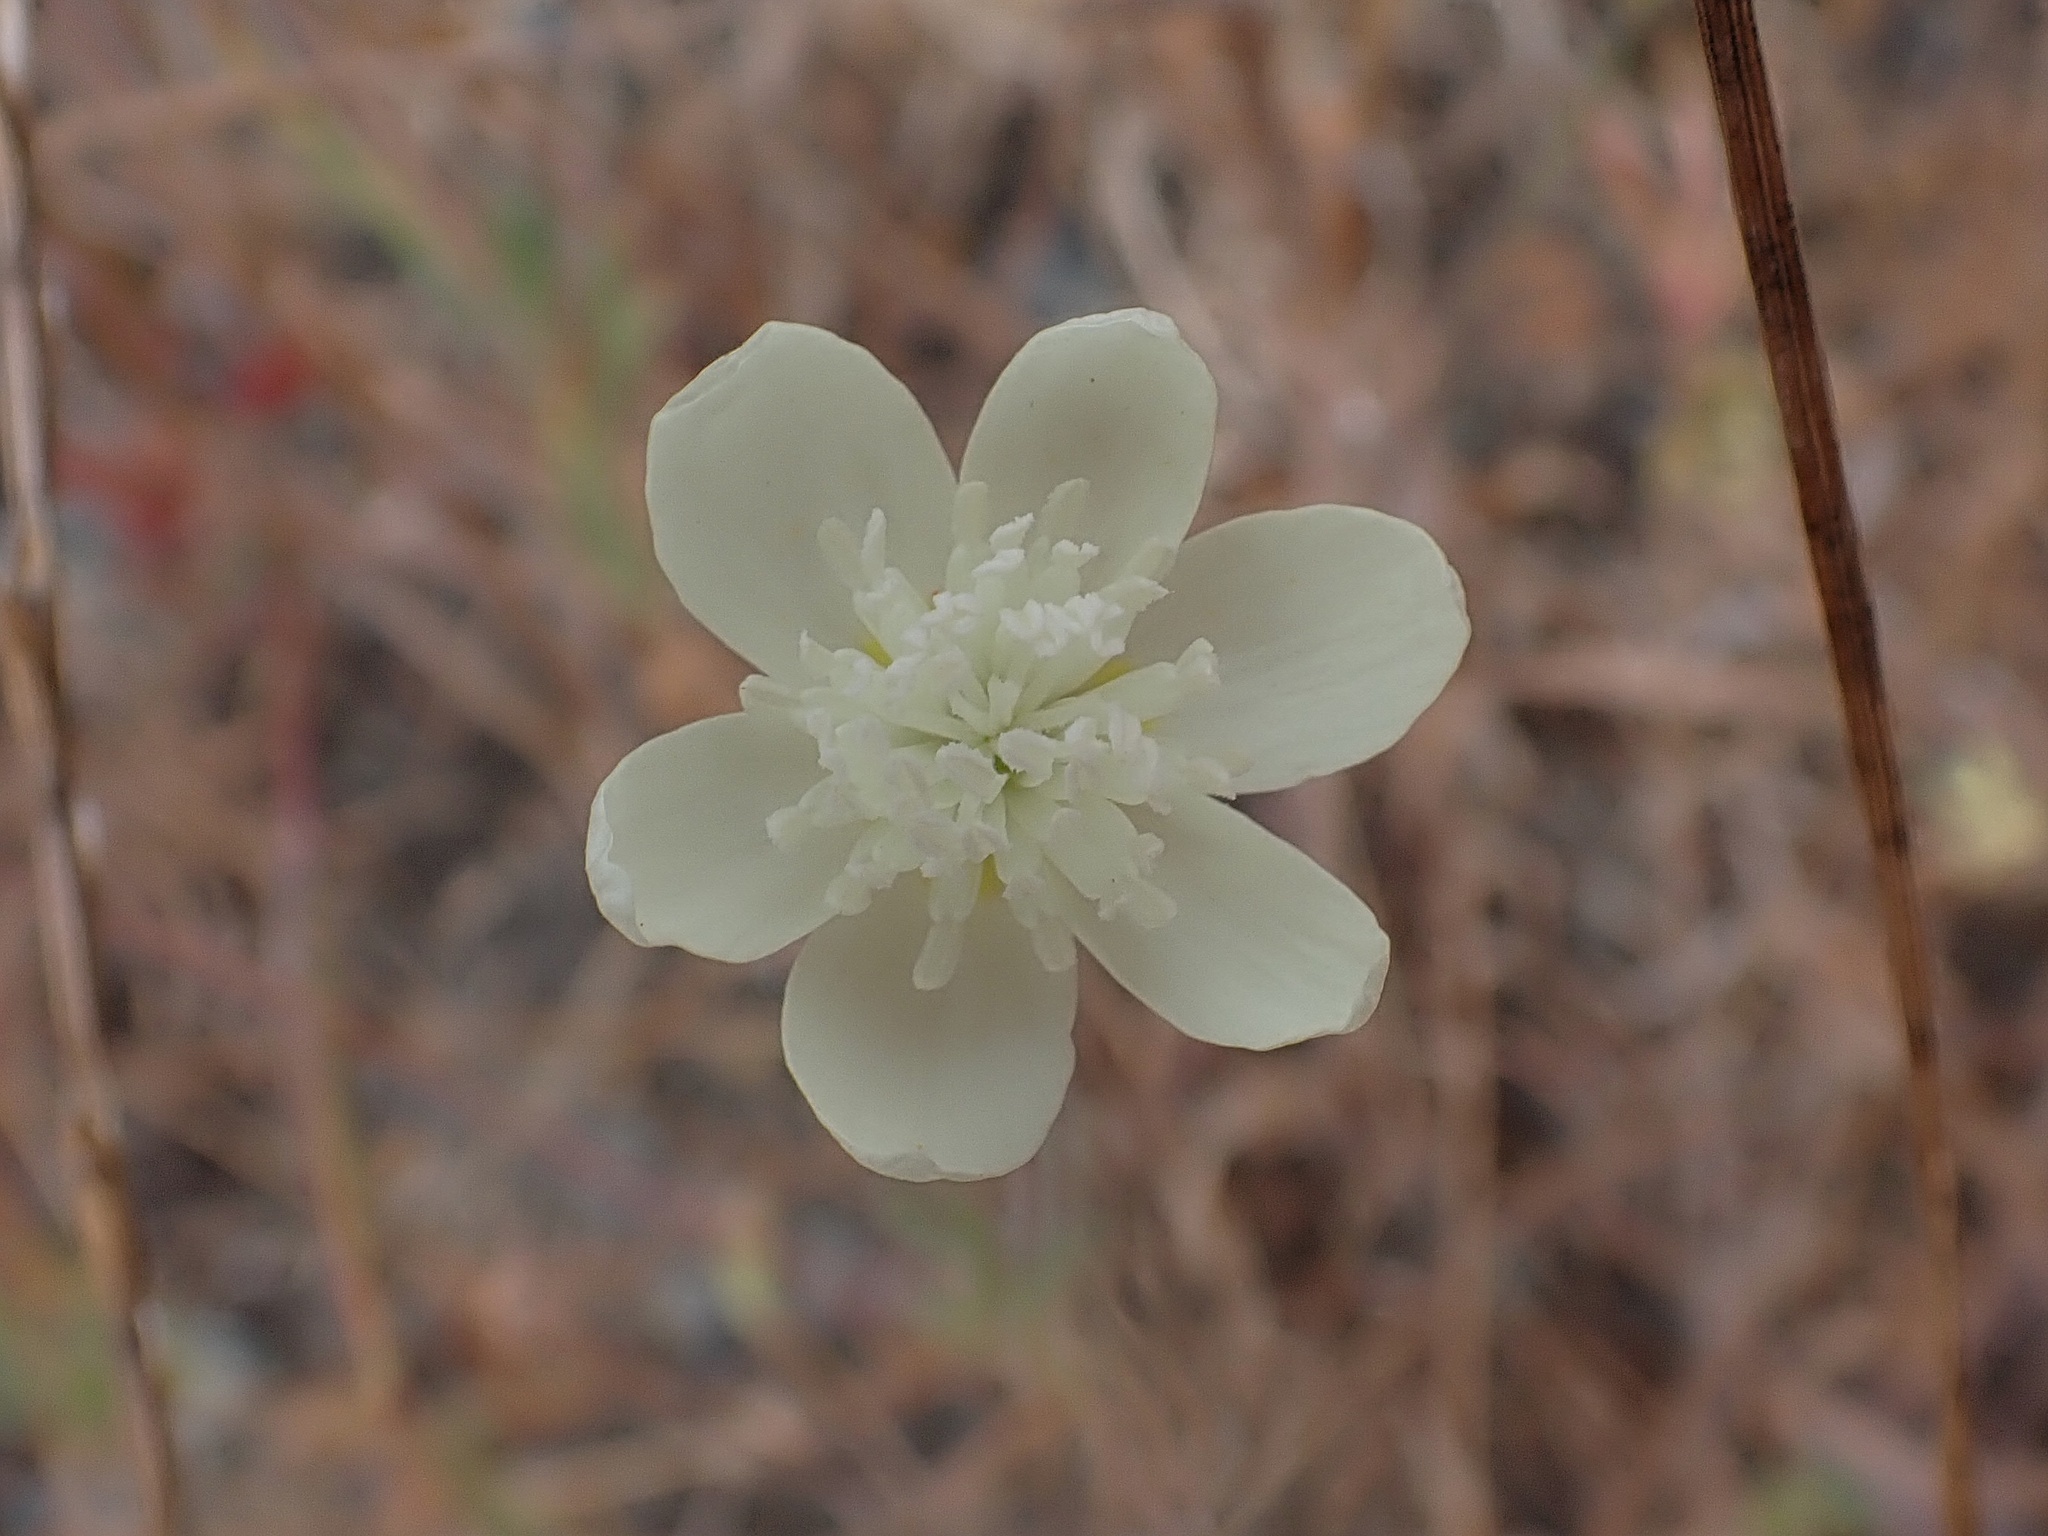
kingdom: Plantae
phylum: Tracheophyta
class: Magnoliopsida
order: Ranunculales
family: Papaveraceae
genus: Platystemon
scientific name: Platystemon californicus
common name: Cream-cups
